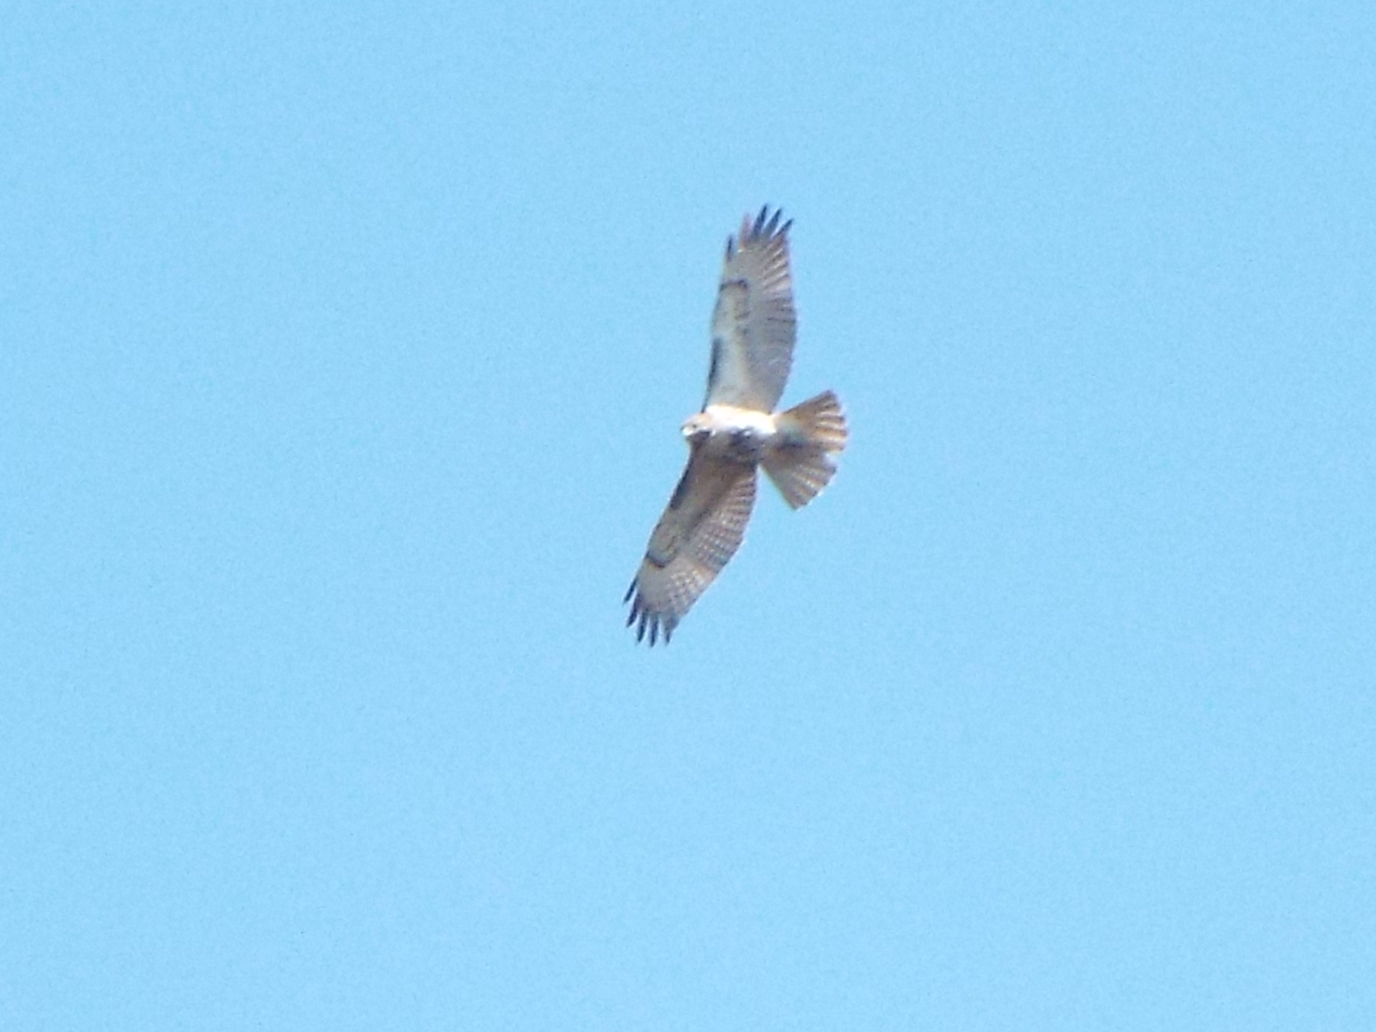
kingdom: Animalia
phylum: Chordata
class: Aves
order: Accipitriformes
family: Accipitridae
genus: Buteo
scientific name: Buteo jamaicensis
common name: Red-tailed hawk
